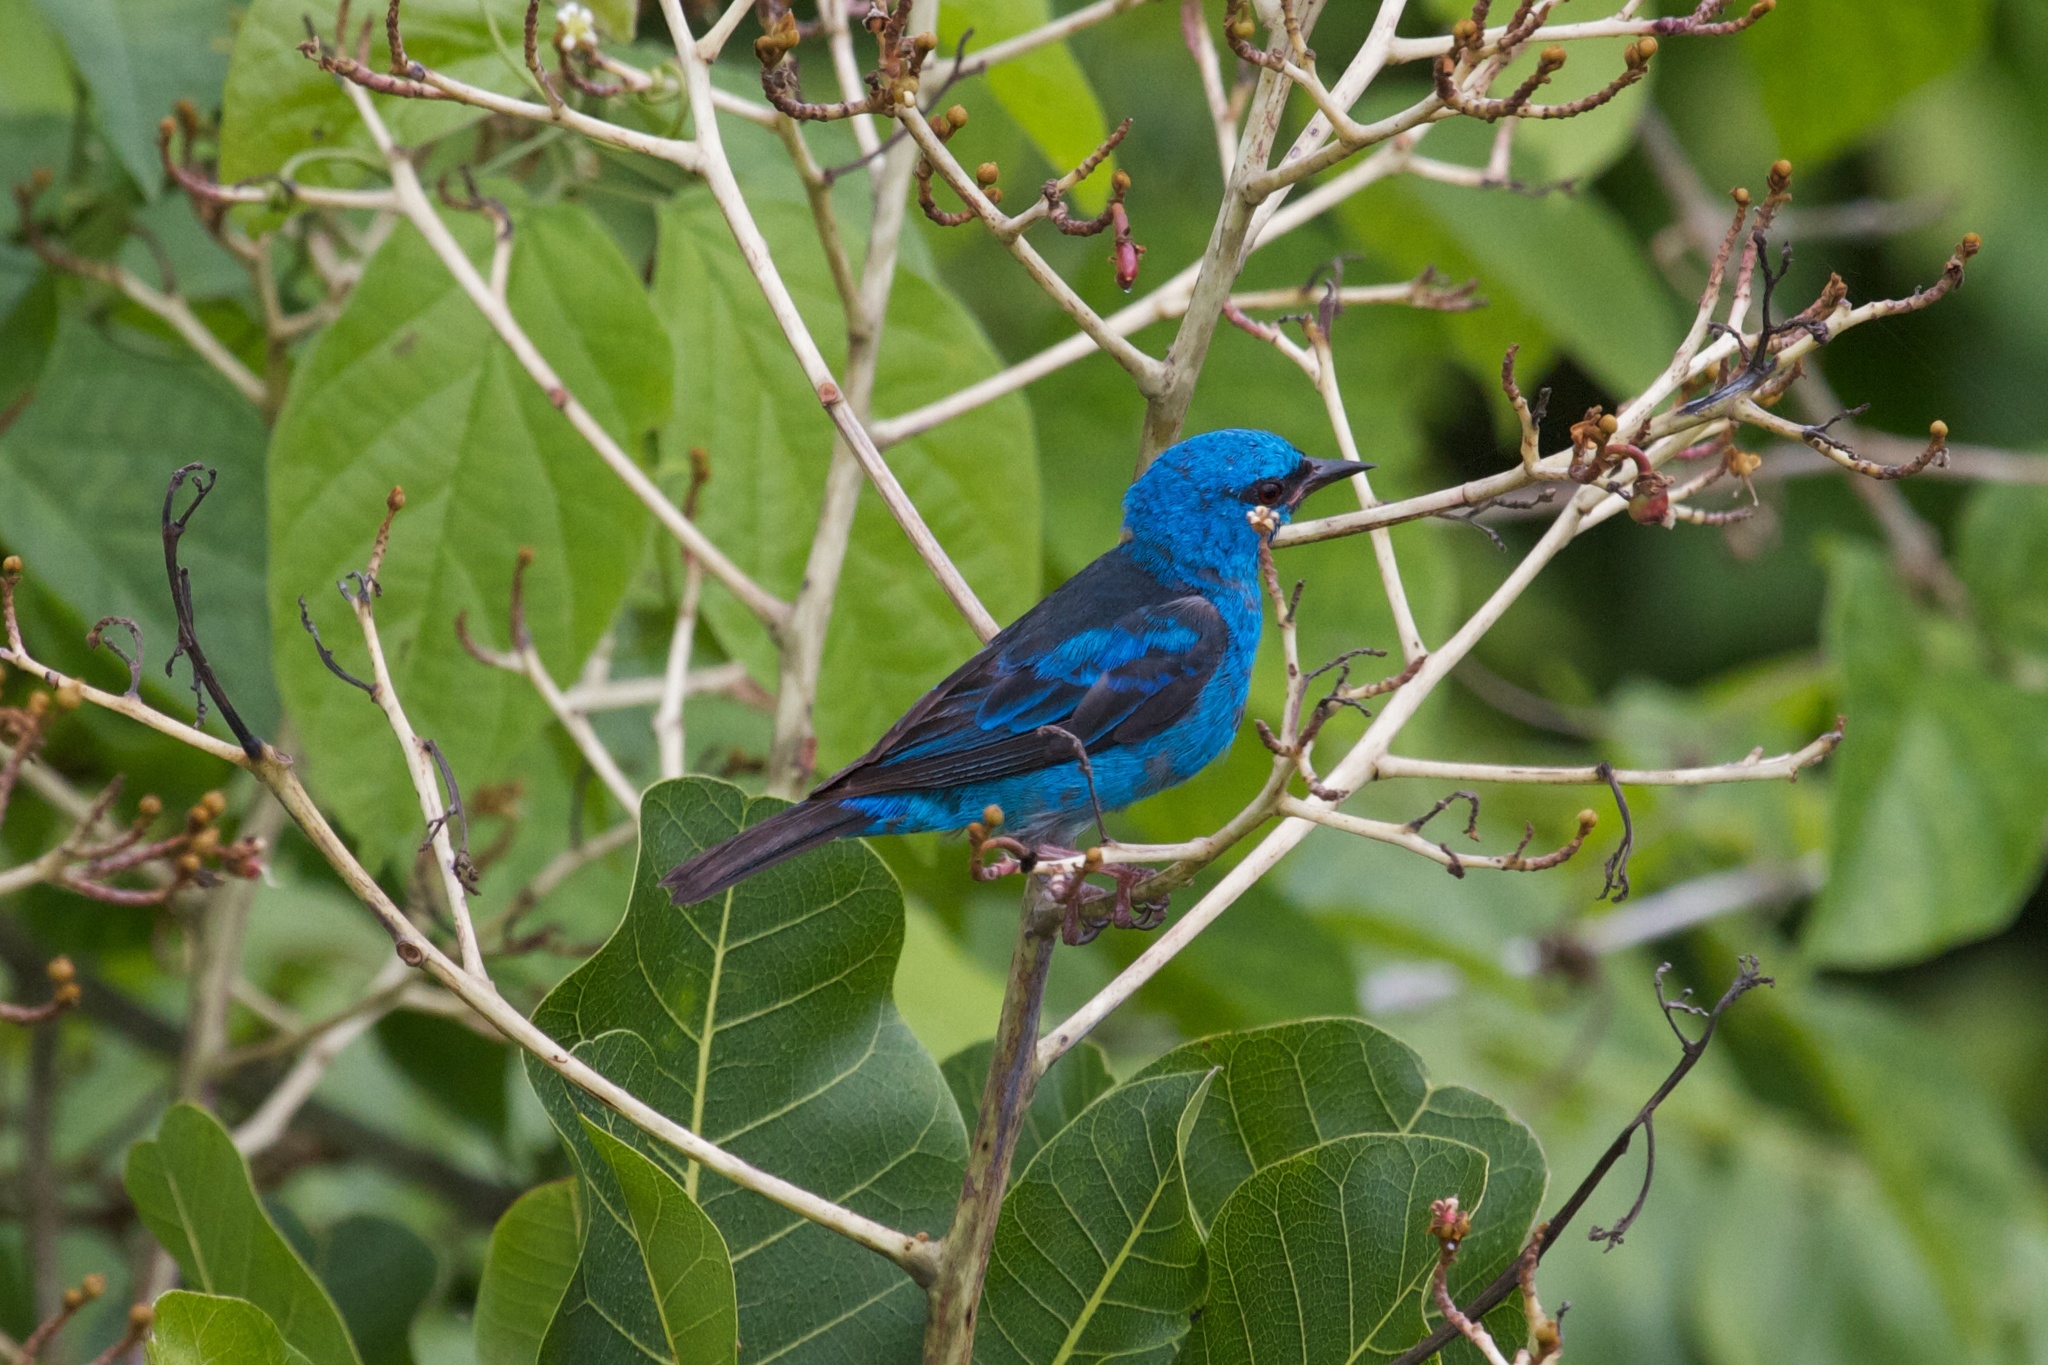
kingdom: Animalia
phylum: Chordata
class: Aves
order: Passeriformes
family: Thraupidae
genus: Dacnis
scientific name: Dacnis cayana
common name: Blue dacnis
